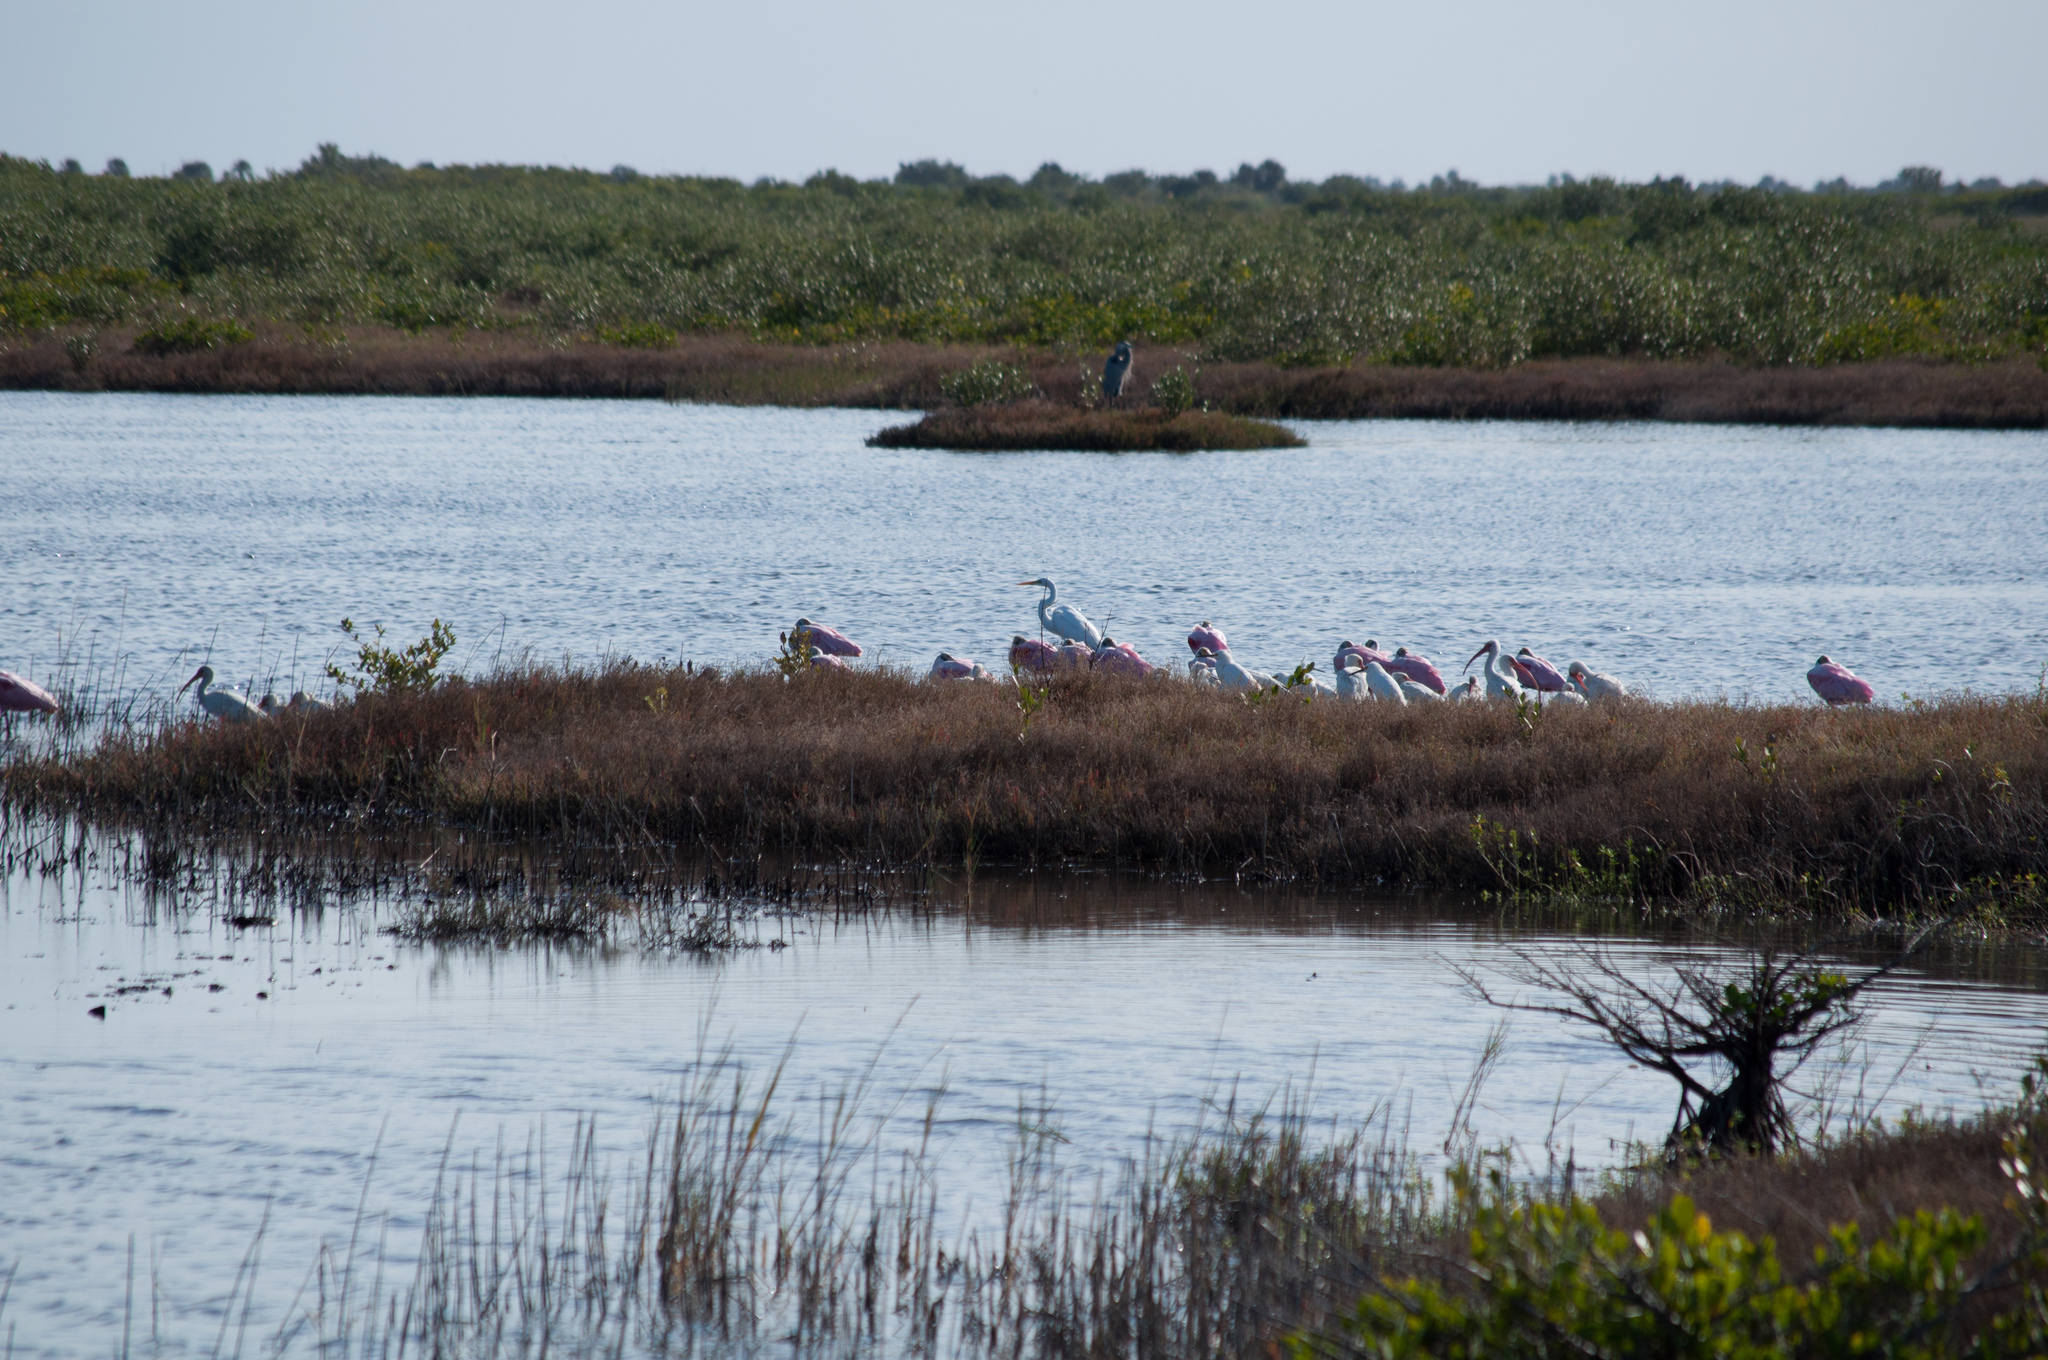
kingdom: Animalia
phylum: Chordata
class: Aves
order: Pelecaniformes
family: Threskiornithidae
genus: Platalea
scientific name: Platalea ajaja
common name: Roseate spoonbill
